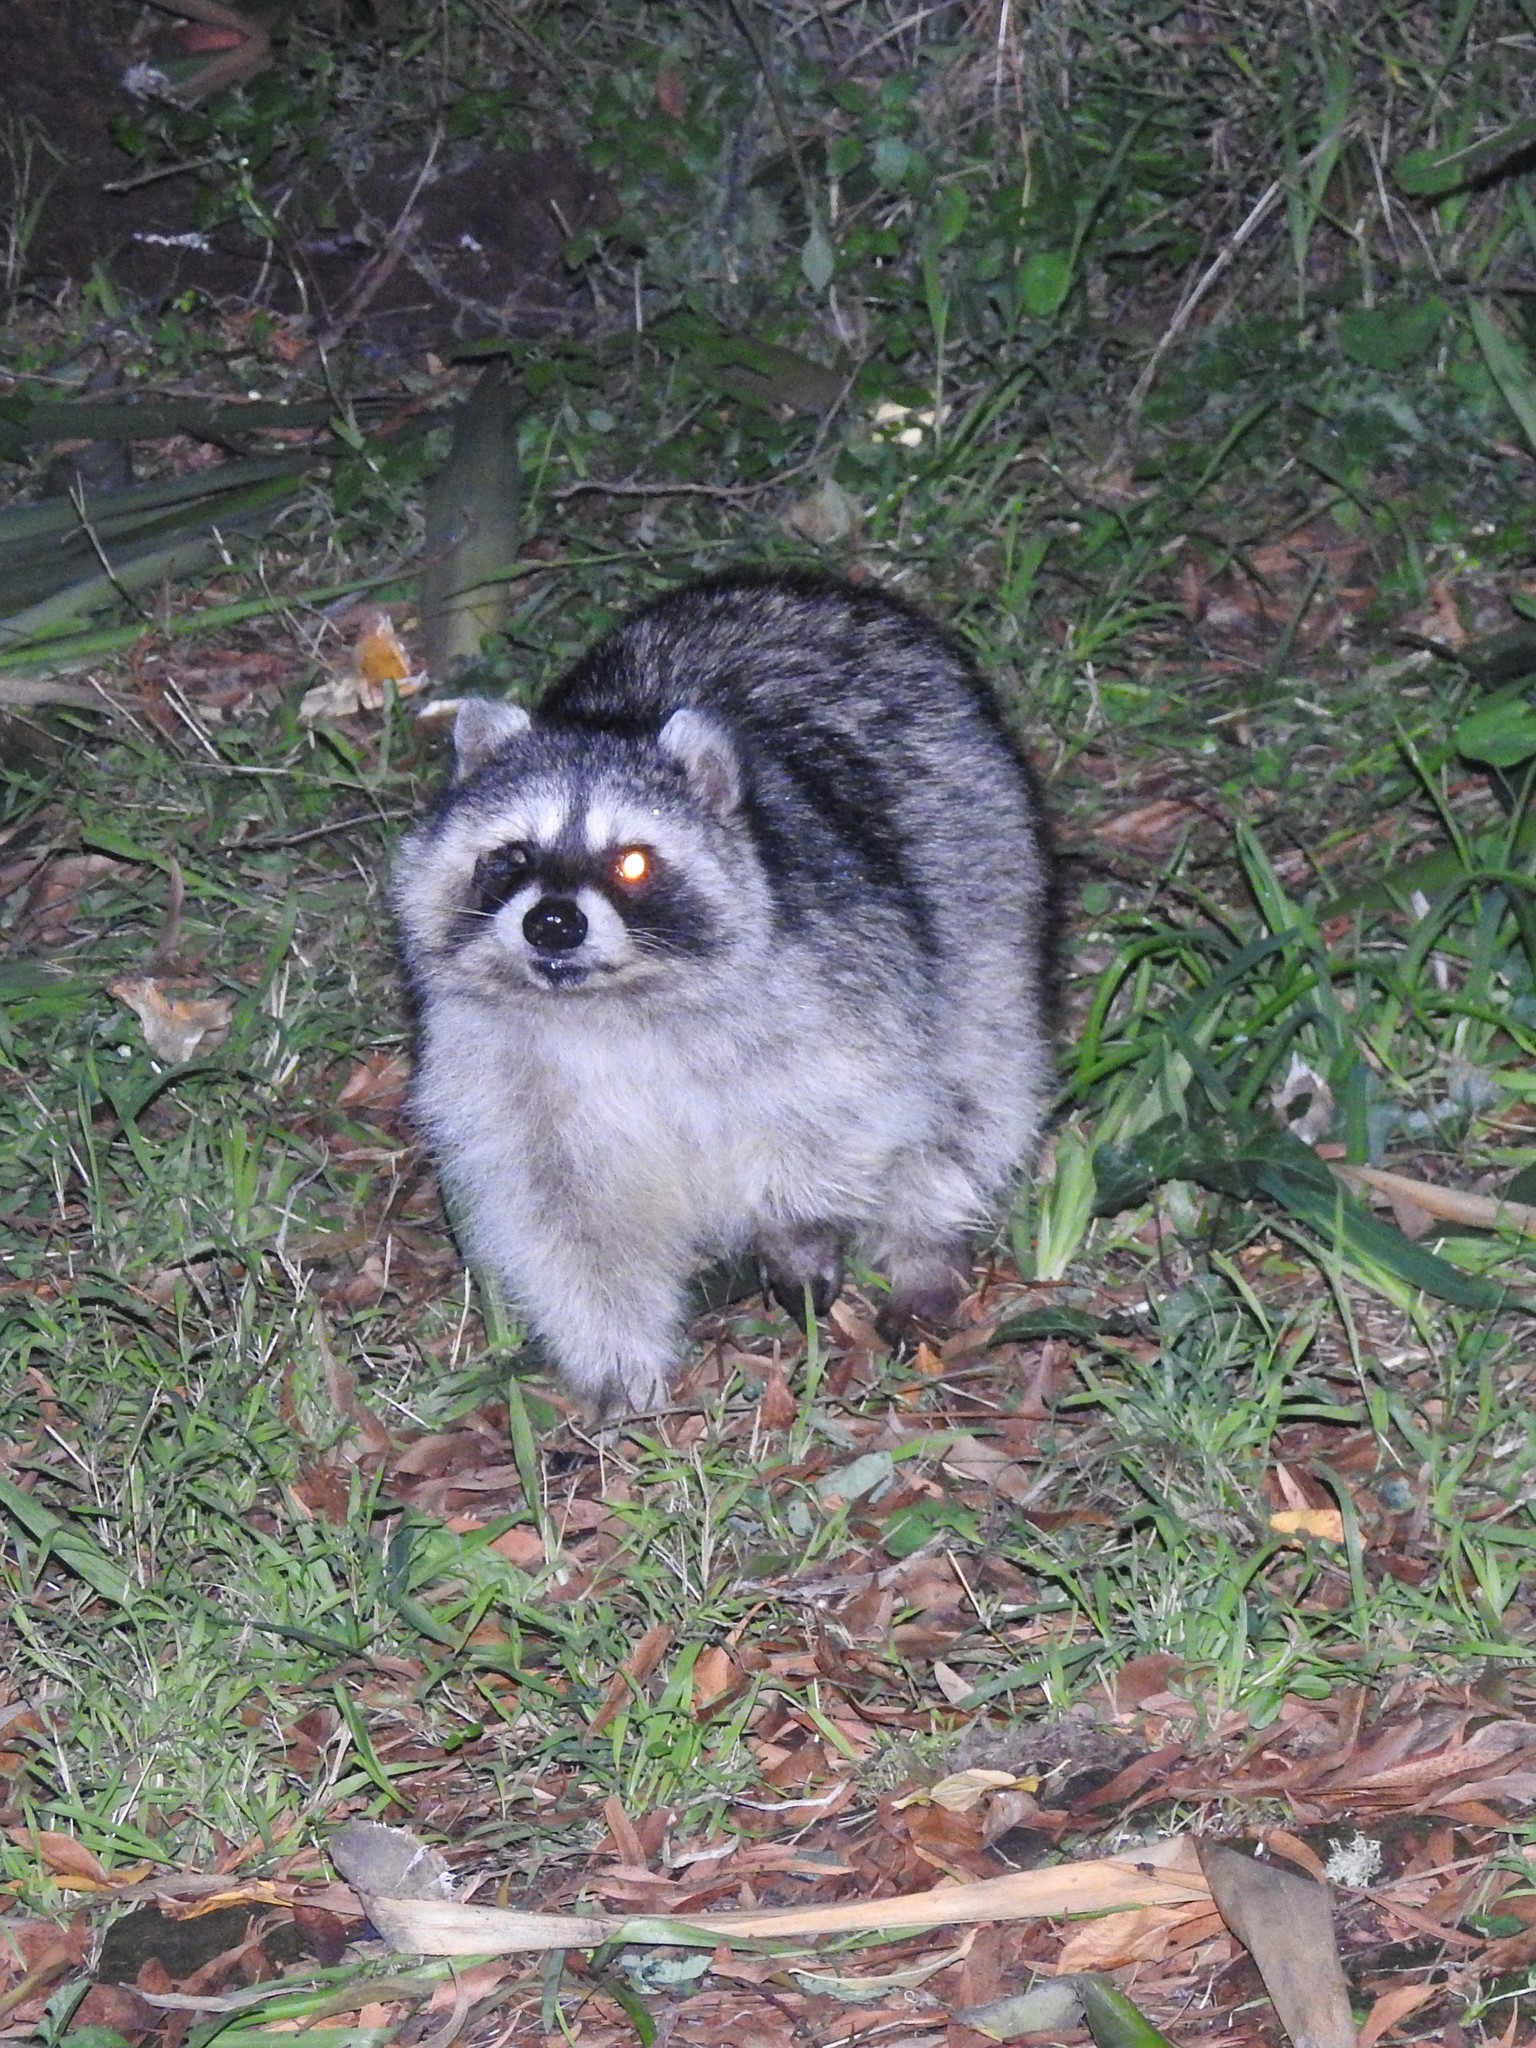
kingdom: Animalia
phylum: Chordata
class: Mammalia
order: Carnivora
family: Procyonidae
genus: Procyon
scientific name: Procyon lotor
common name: Raccoon
